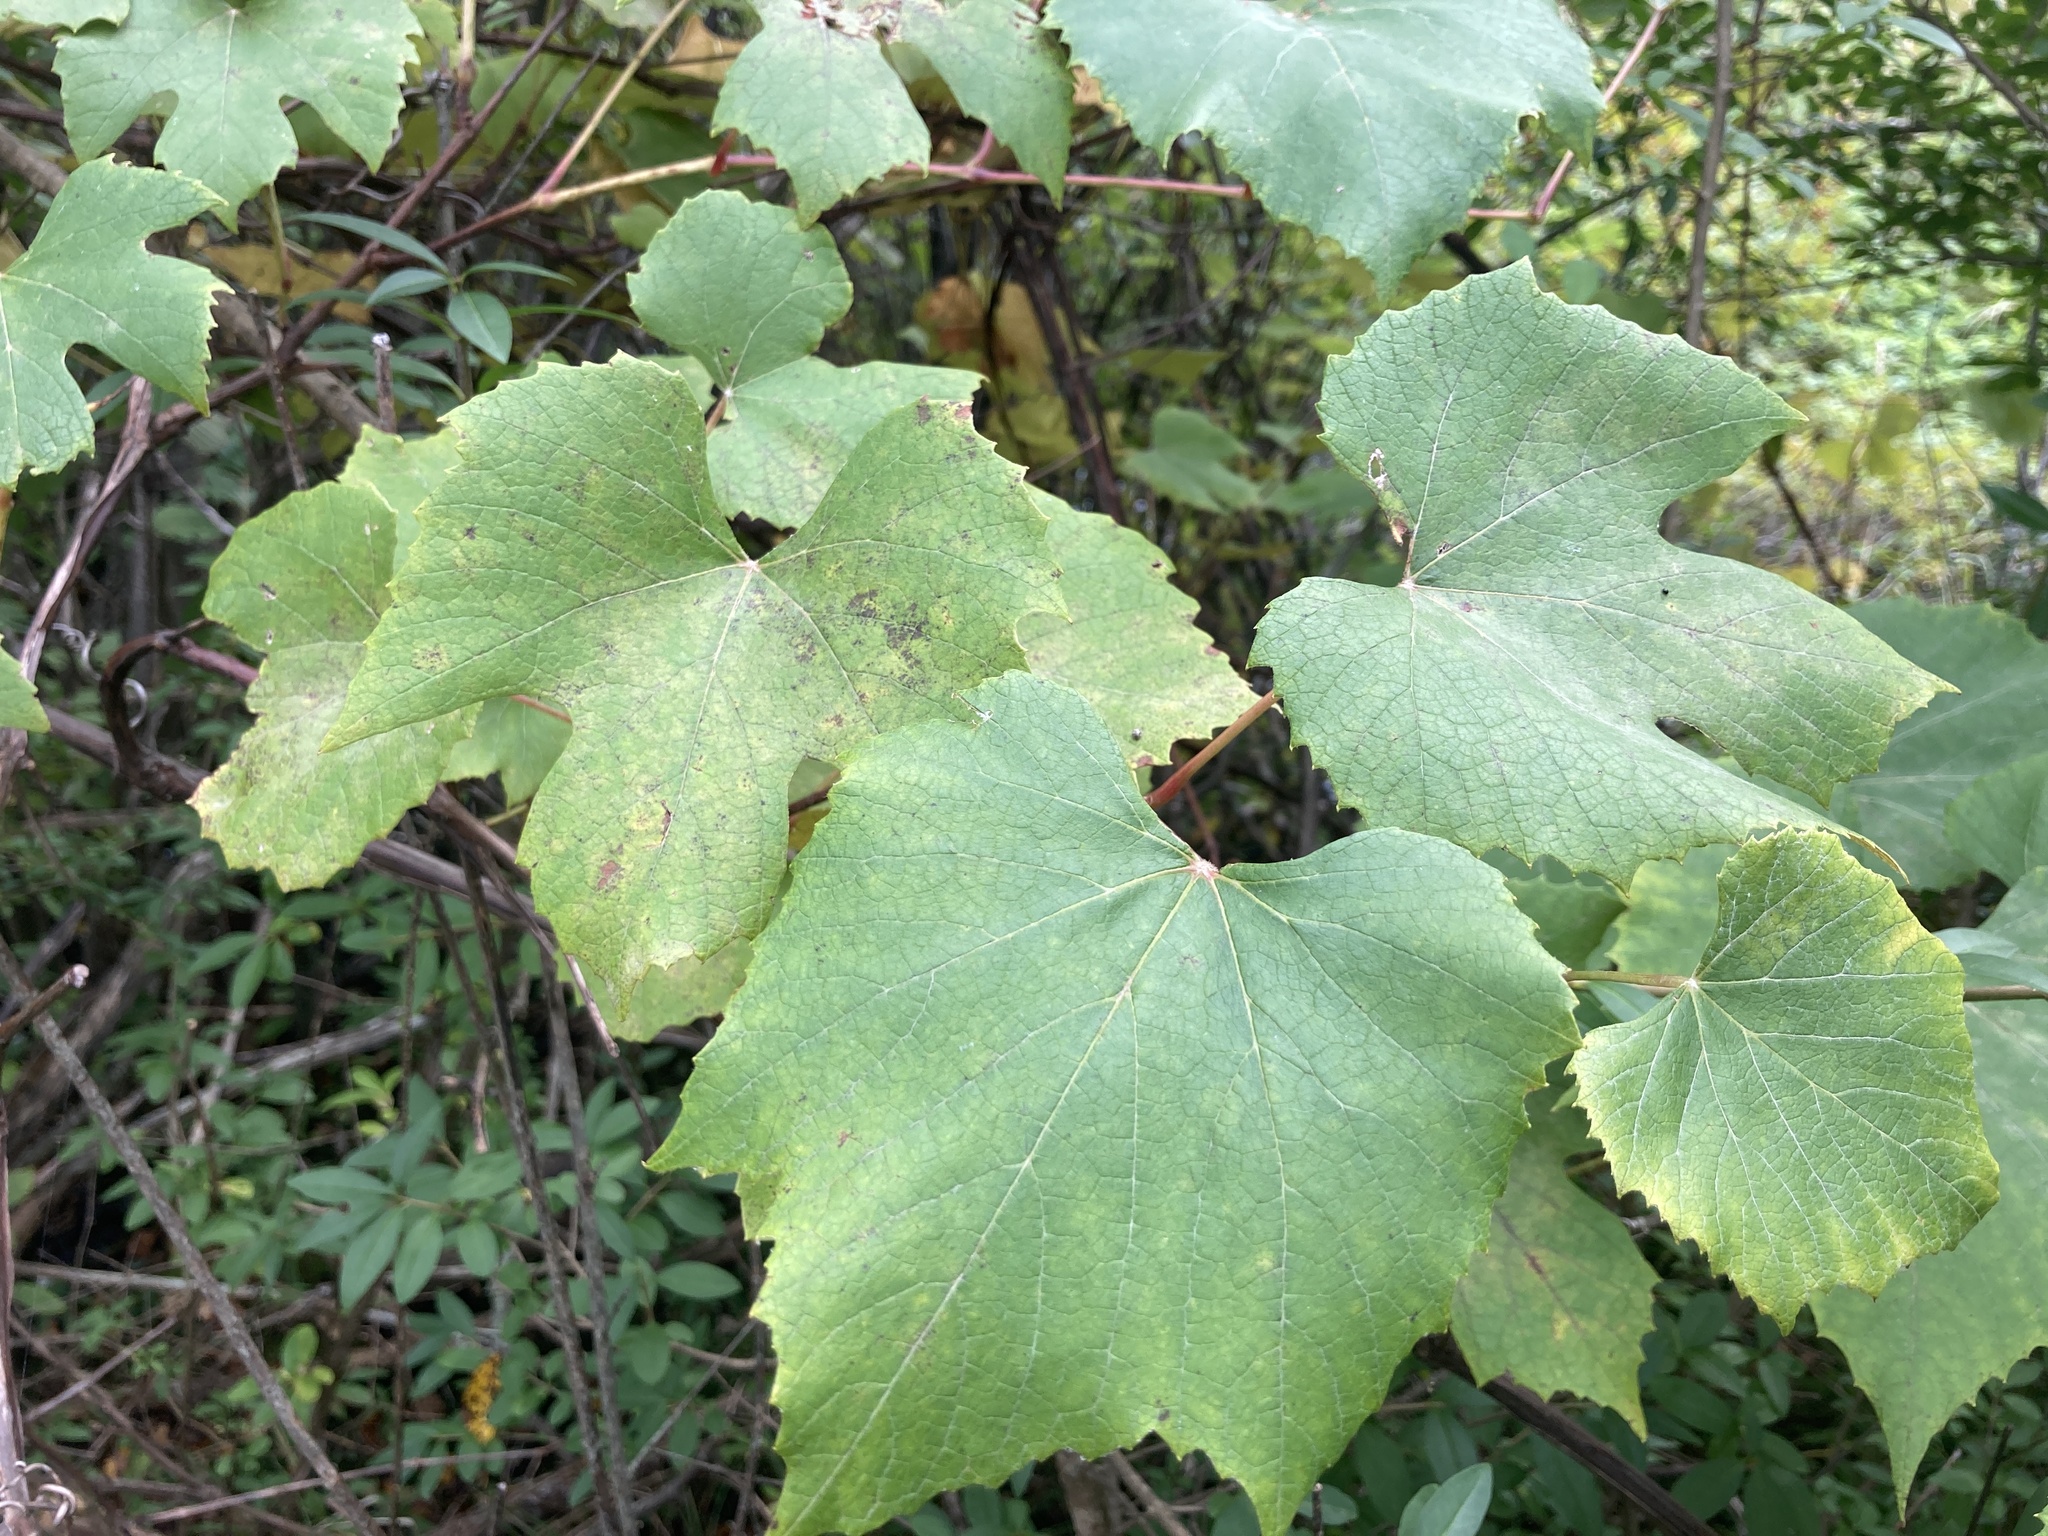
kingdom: Plantae
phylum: Tracheophyta
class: Magnoliopsida
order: Vitales
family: Vitaceae
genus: Vitis
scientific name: Vitis riparia
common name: Frost grape
